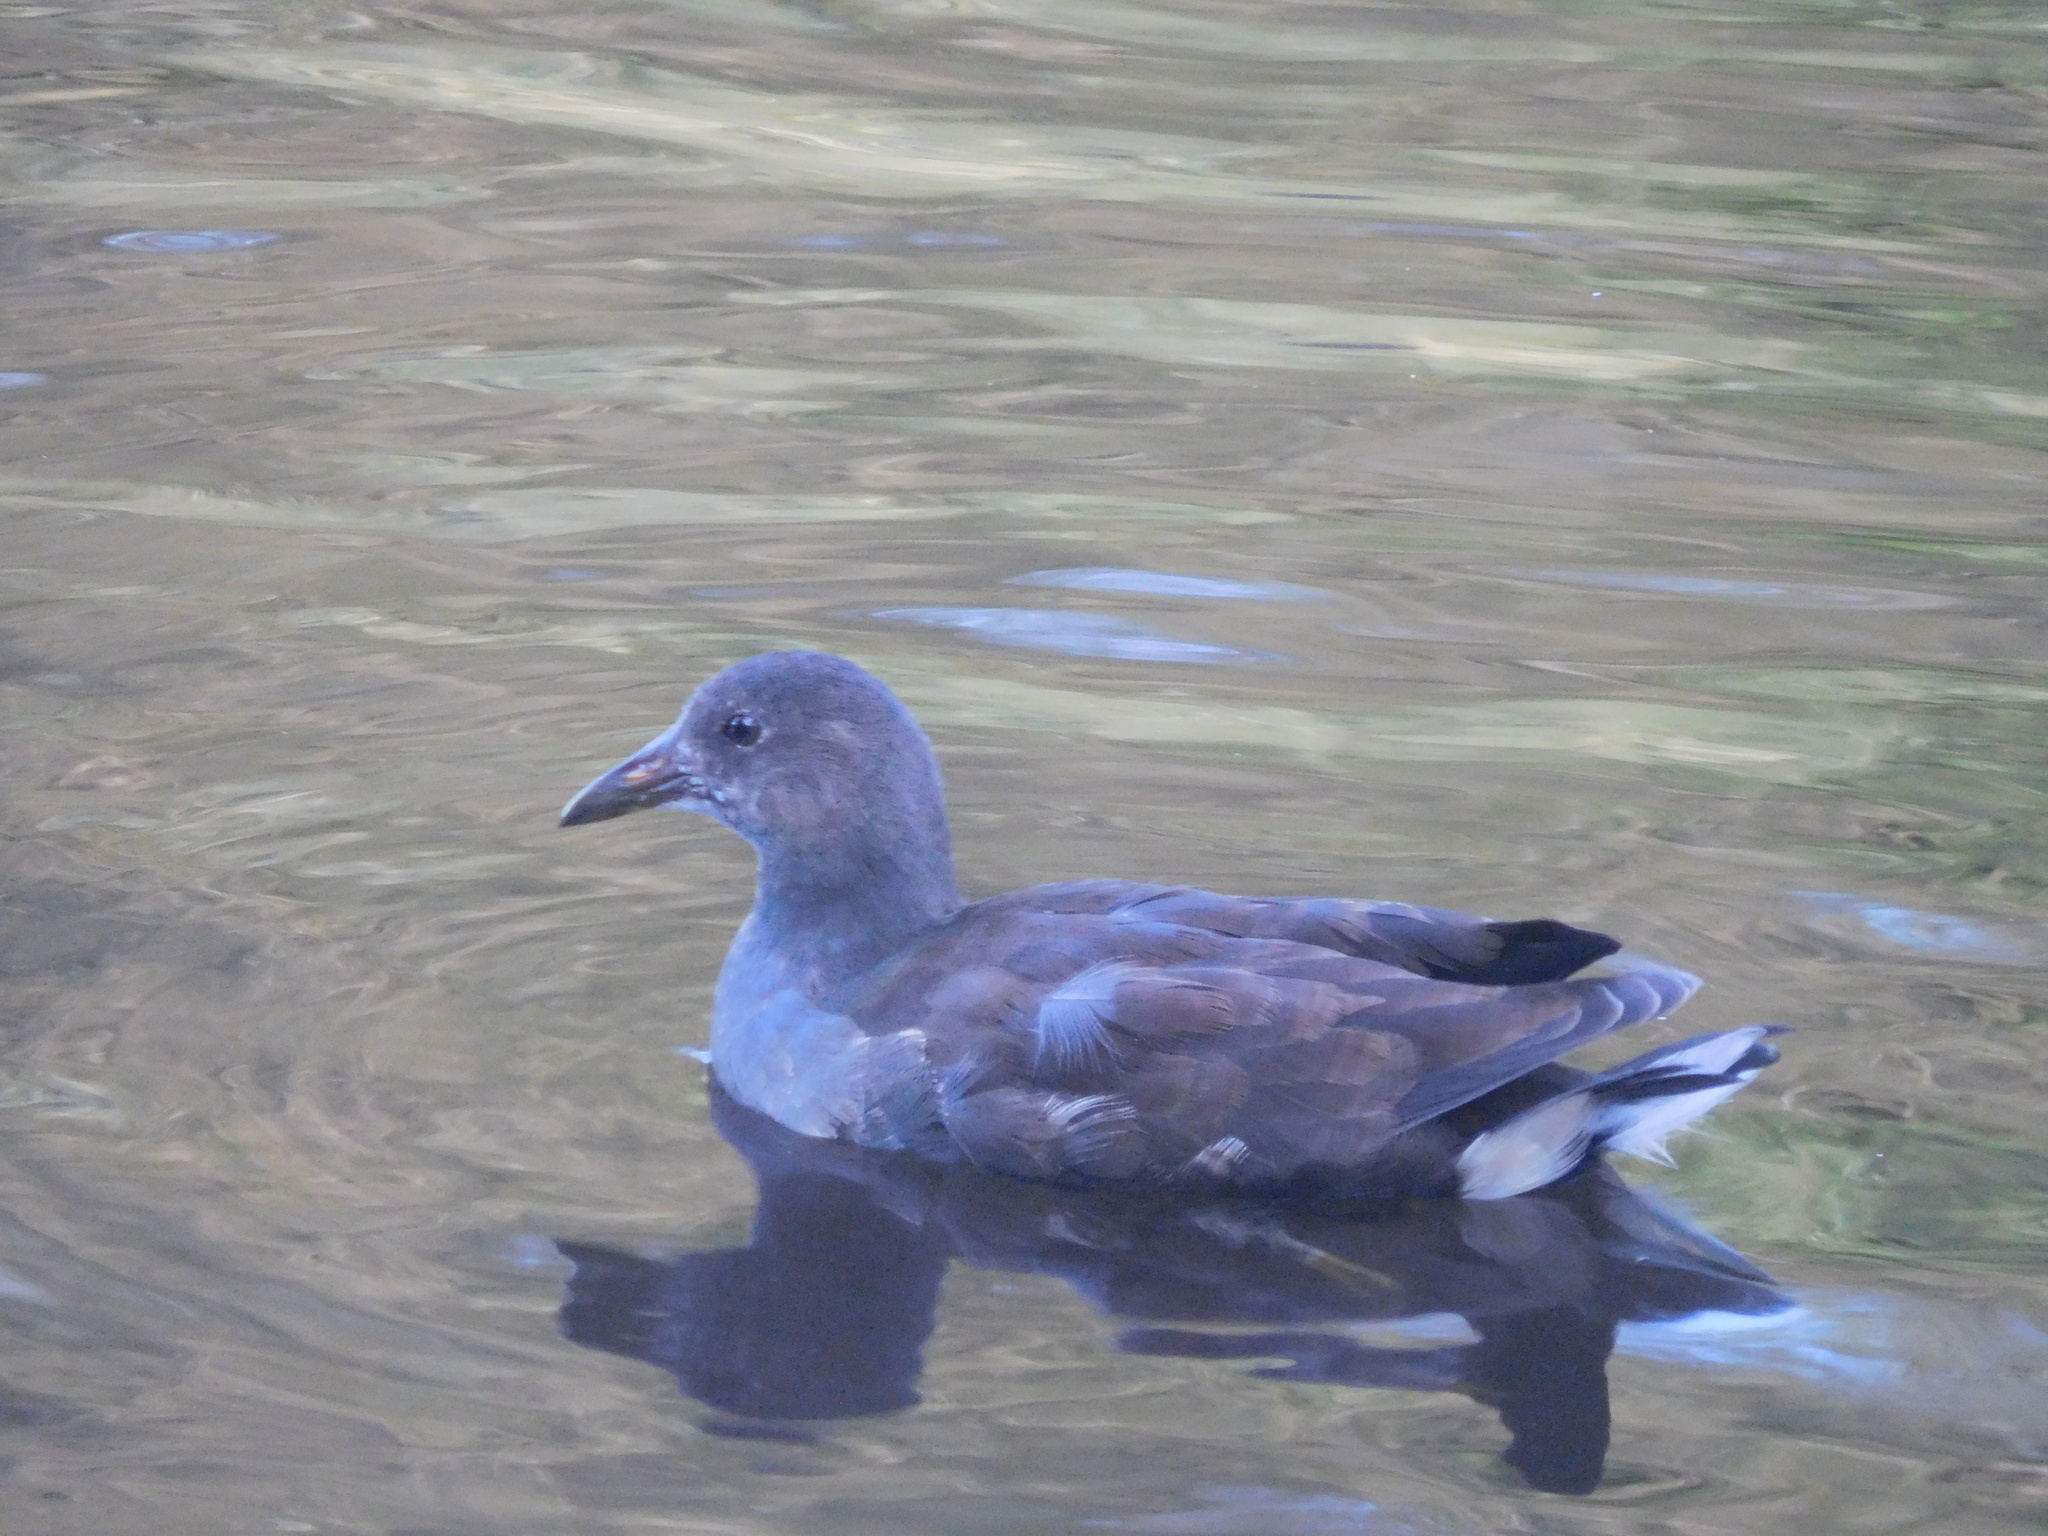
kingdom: Animalia
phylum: Chordata
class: Aves
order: Gruiformes
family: Rallidae
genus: Gallinula
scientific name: Gallinula chloropus
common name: Common moorhen
